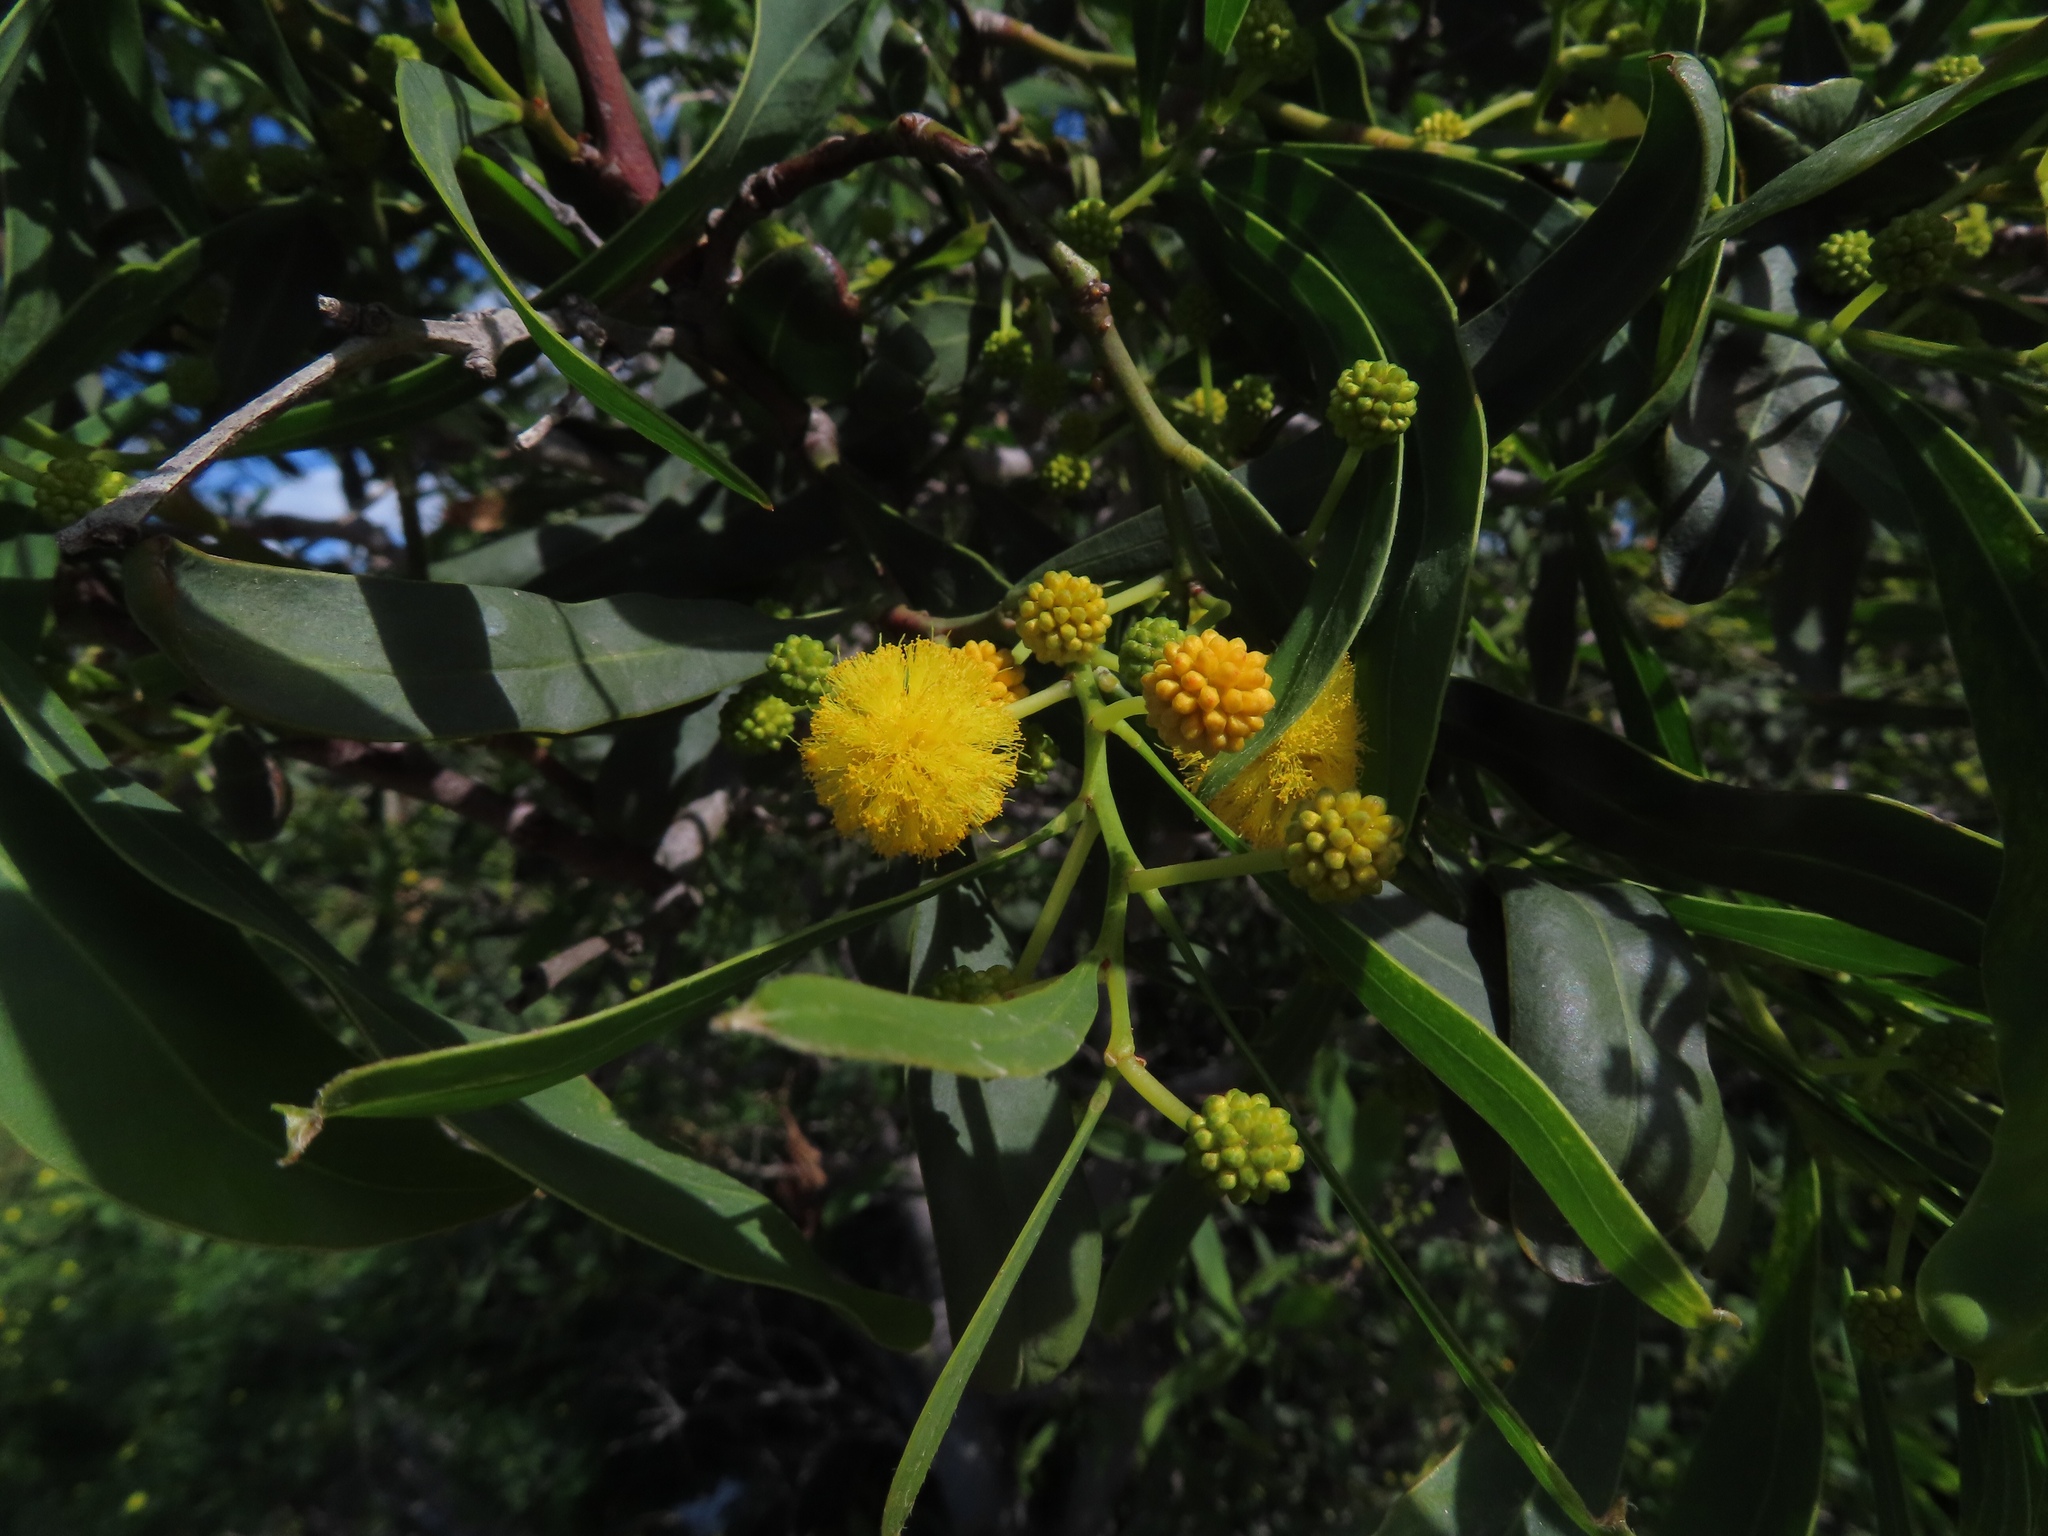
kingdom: Plantae
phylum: Tracheophyta
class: Magnoliopsida
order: Fabales
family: Fabaceae
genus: Acacia
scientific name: Acacia saligna
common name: Orange wattle
